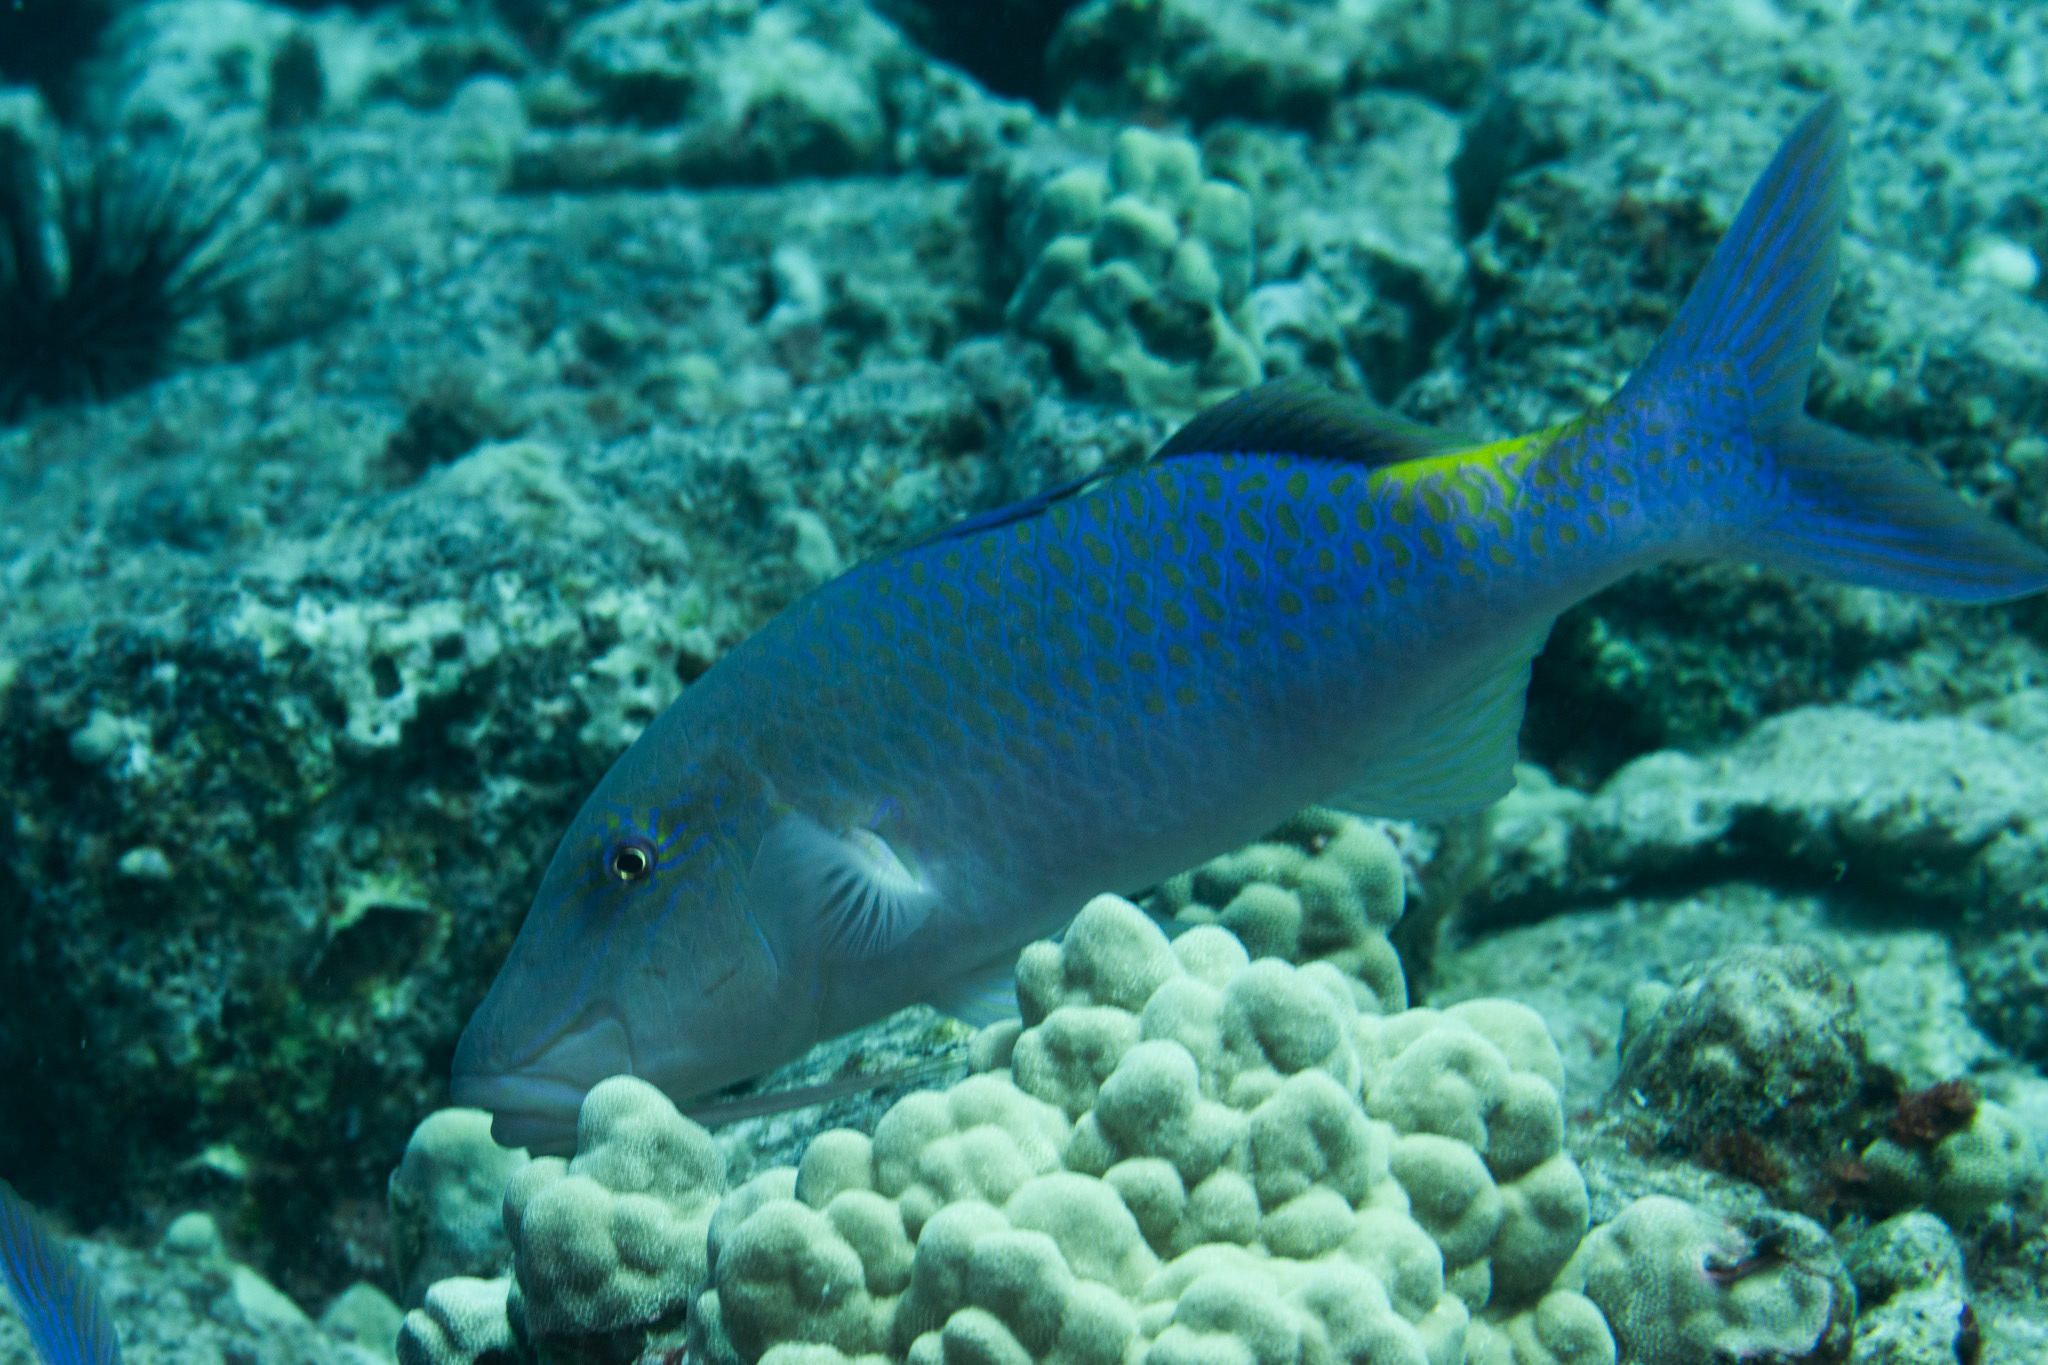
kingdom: Animalia
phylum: Chordata
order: Perciformes
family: Mullidae
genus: Parupeneus
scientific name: Parupeneus cyclostomus
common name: Goldsaddle goatfish
